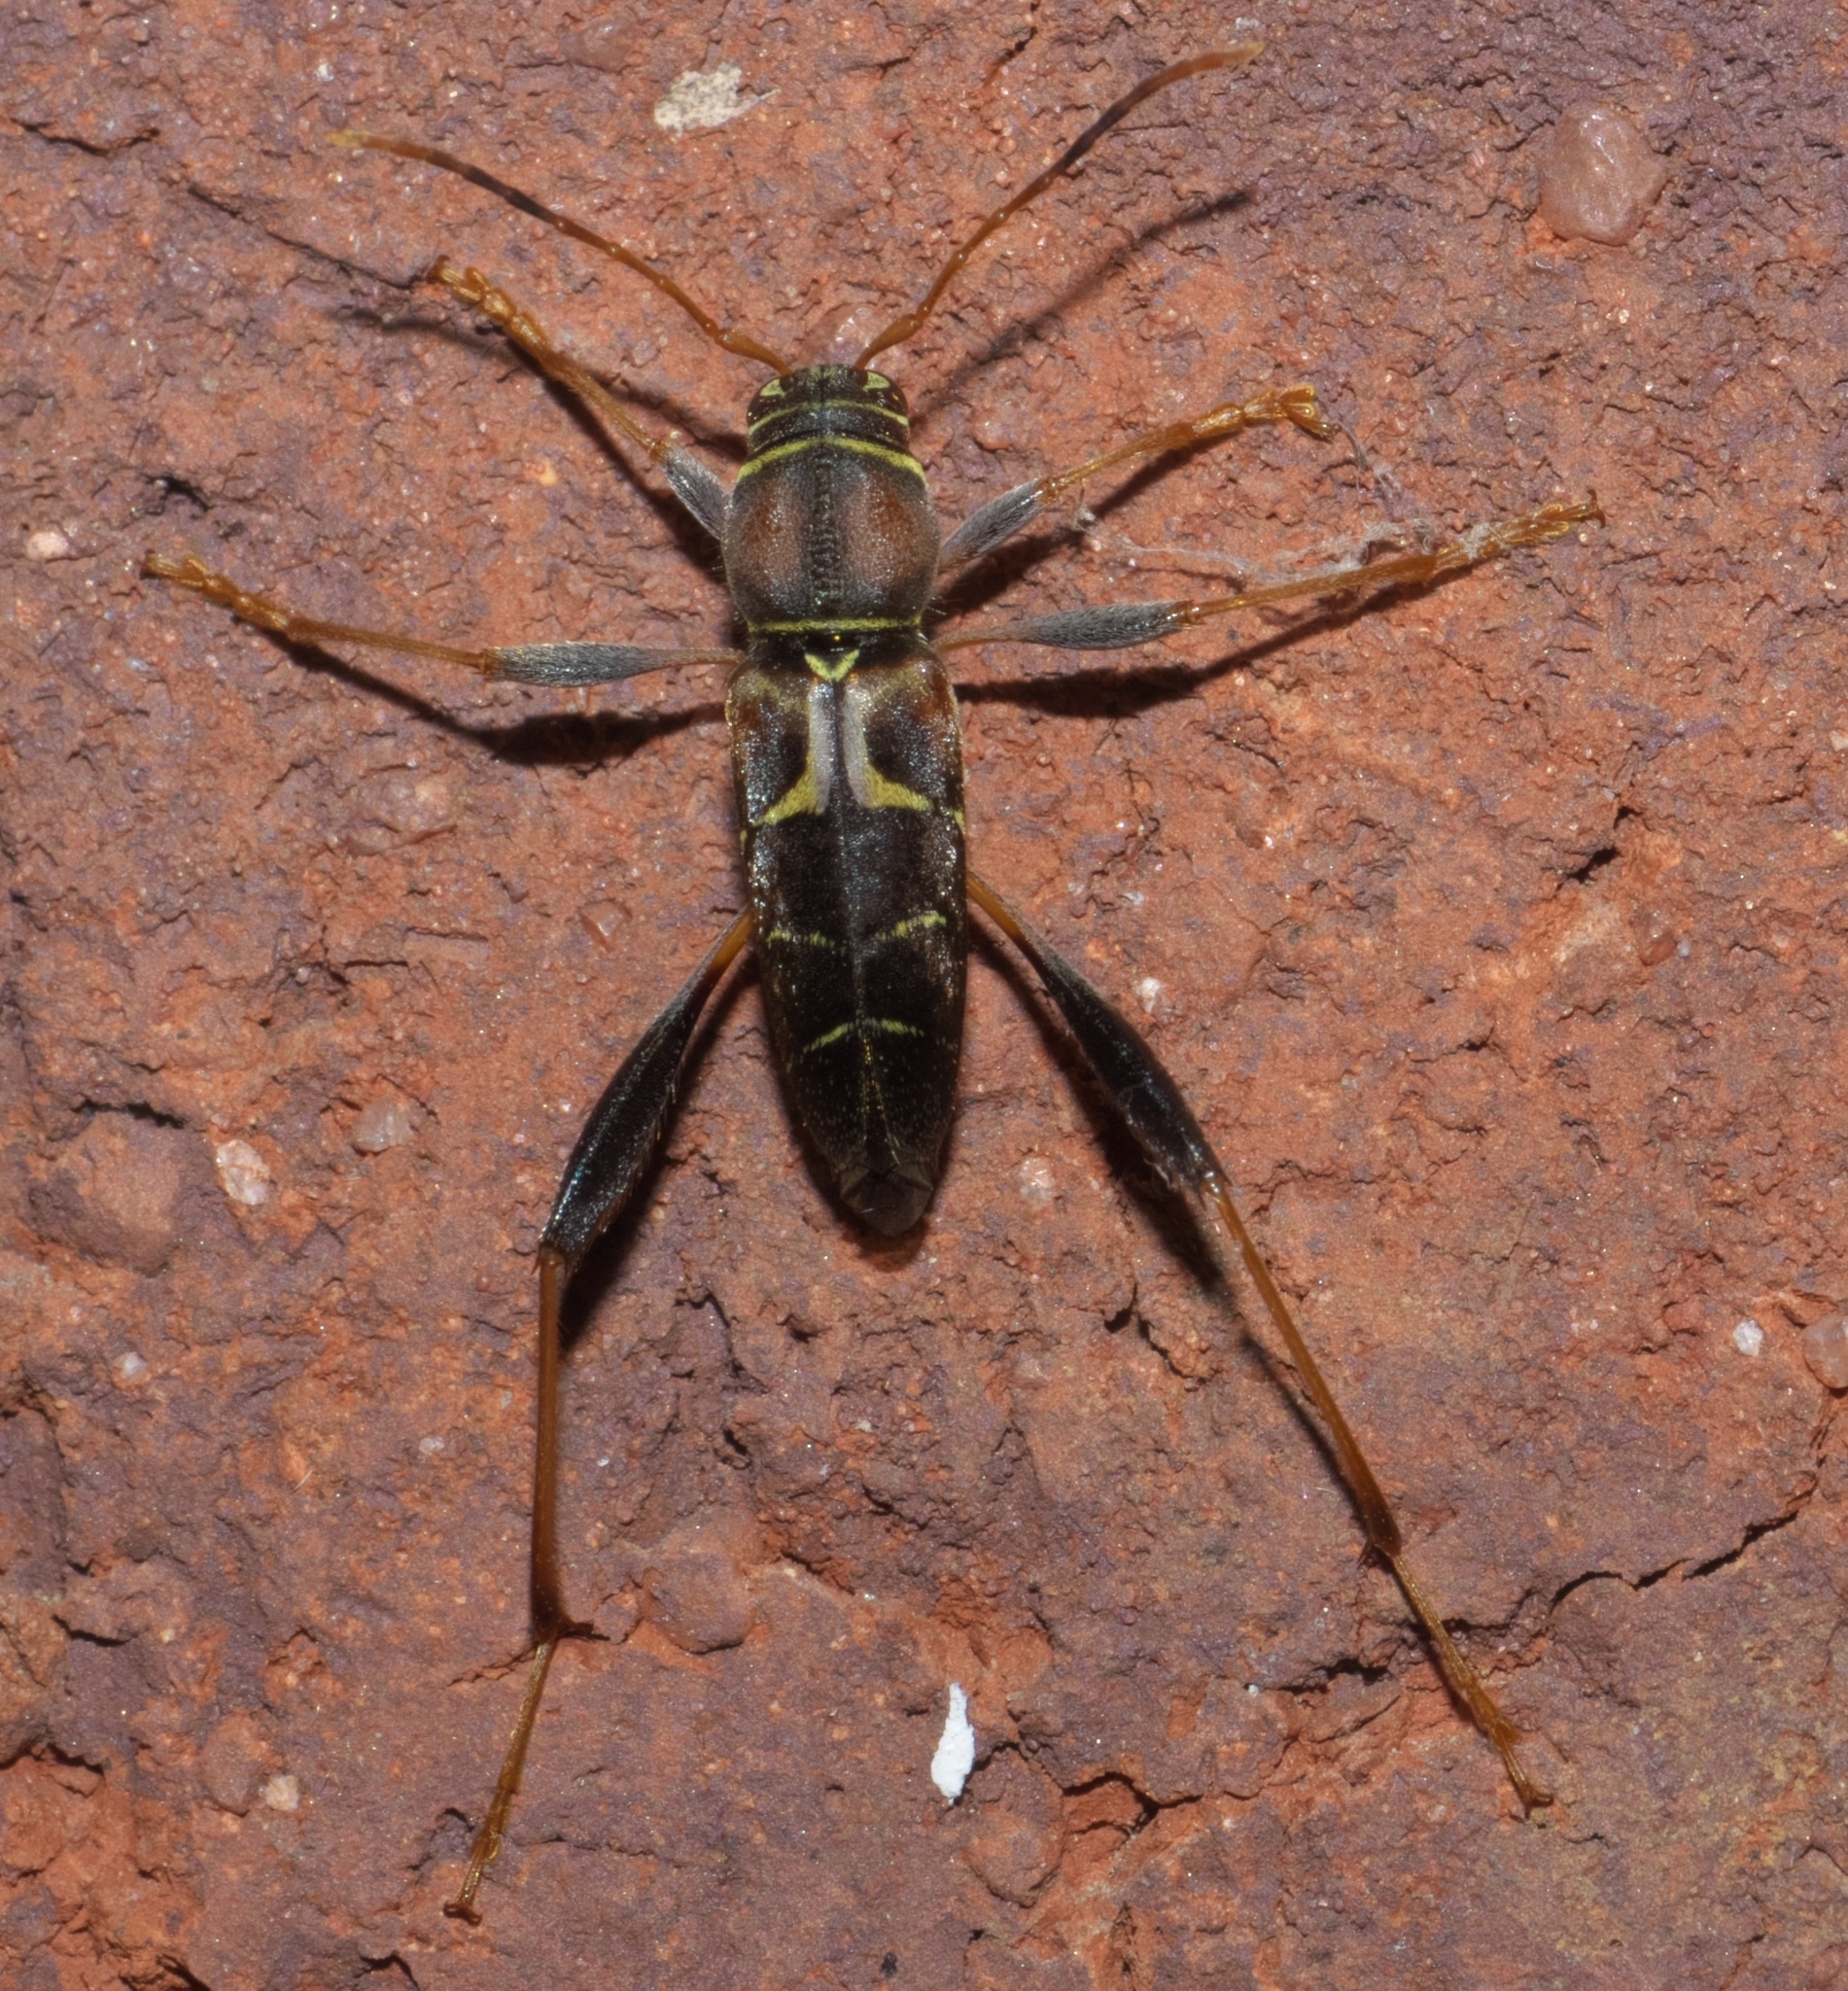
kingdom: Animalia
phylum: Arthropoda
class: Insecta
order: Coleoptera
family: Cerambycidae
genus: Neoclytus
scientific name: Neoclytus mucronatus
